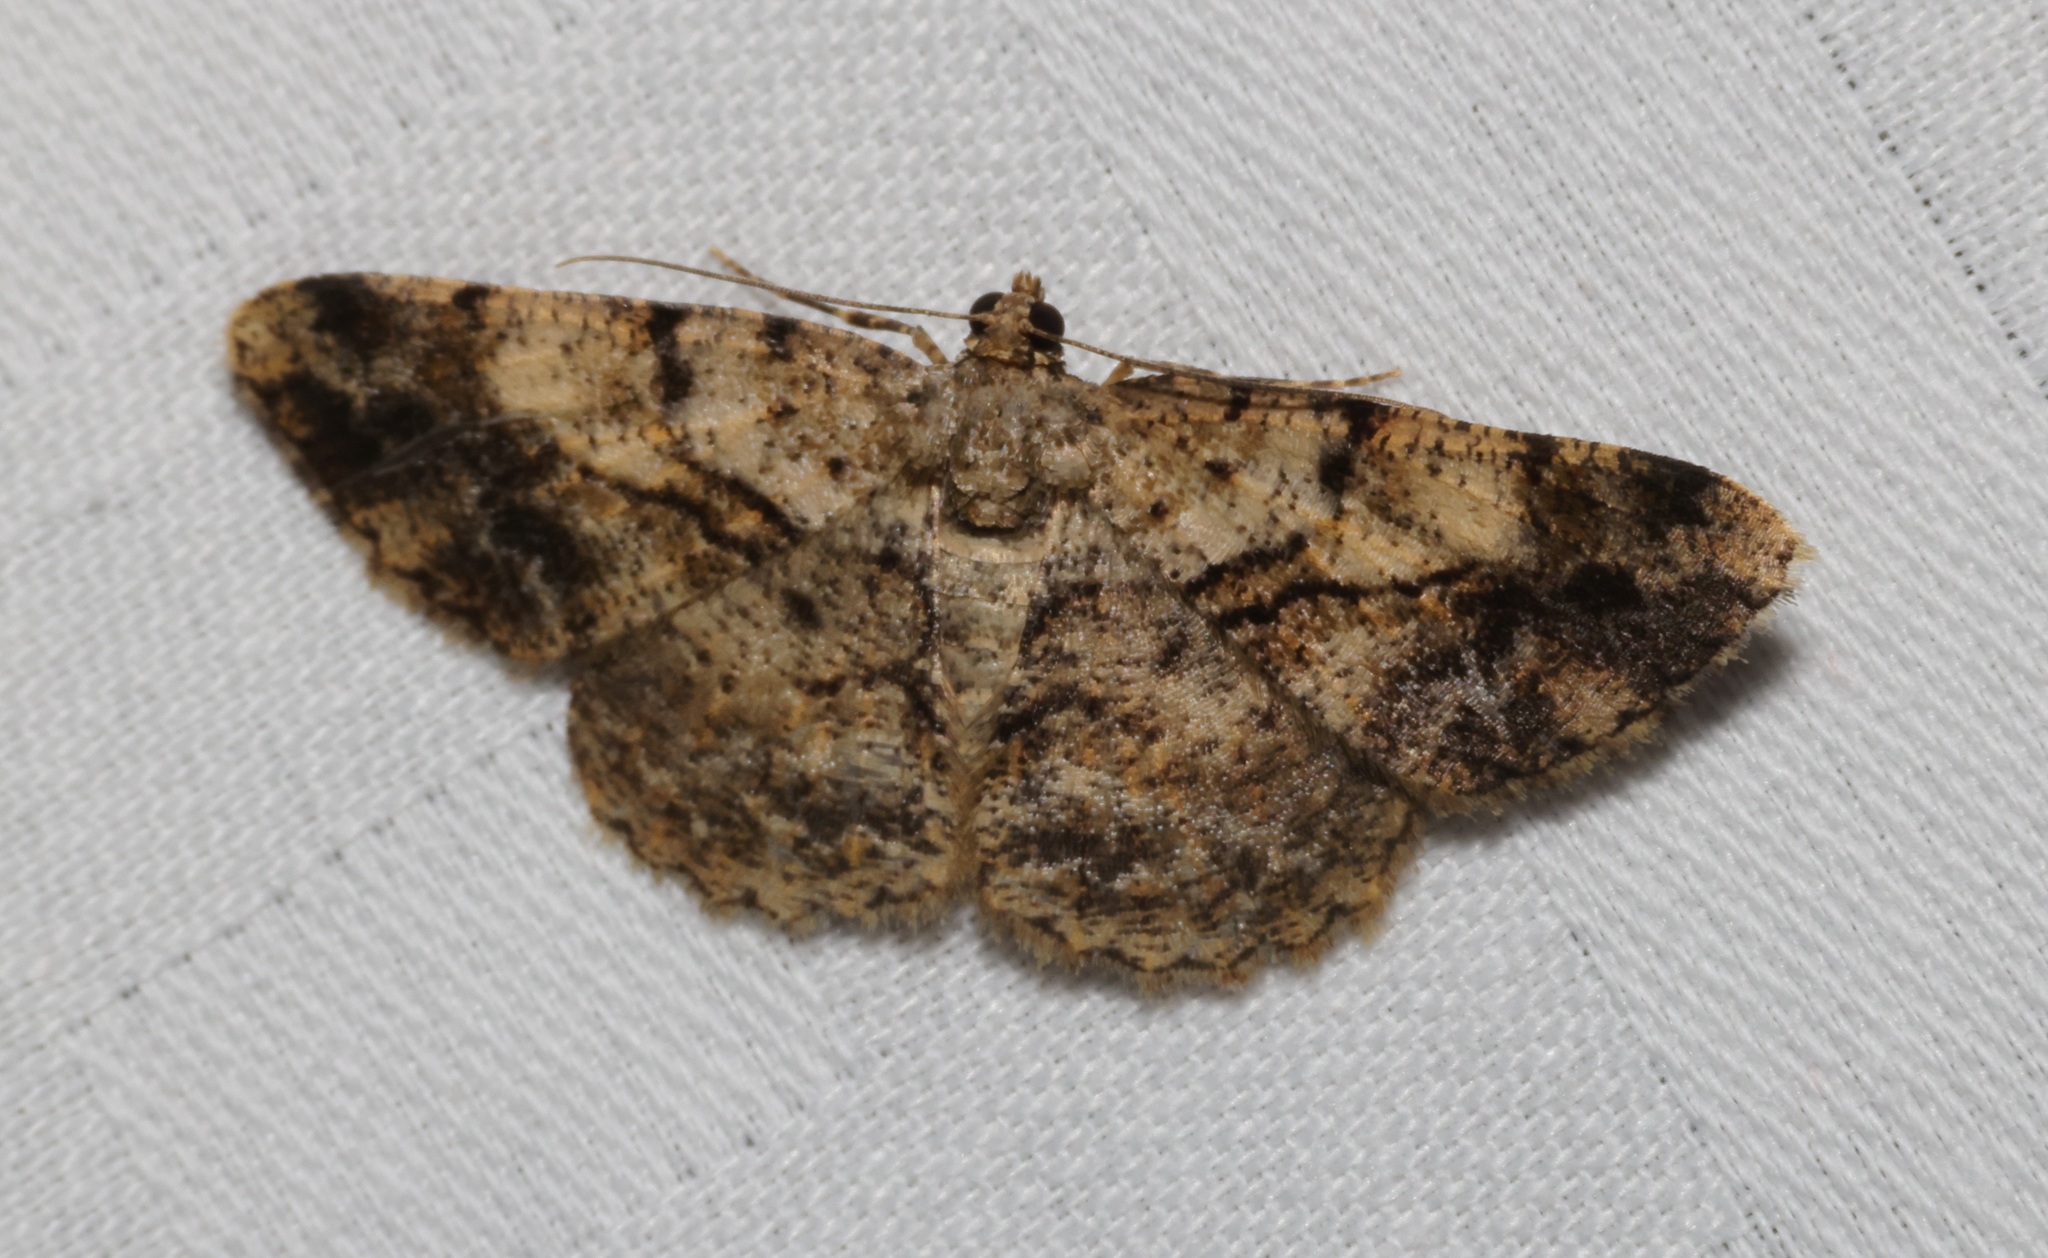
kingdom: Animalia
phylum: Arthropoda
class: Insecta
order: Lepidoptera
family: Geometridae
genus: Psilalcis
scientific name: Psilalcis galsworthyi
